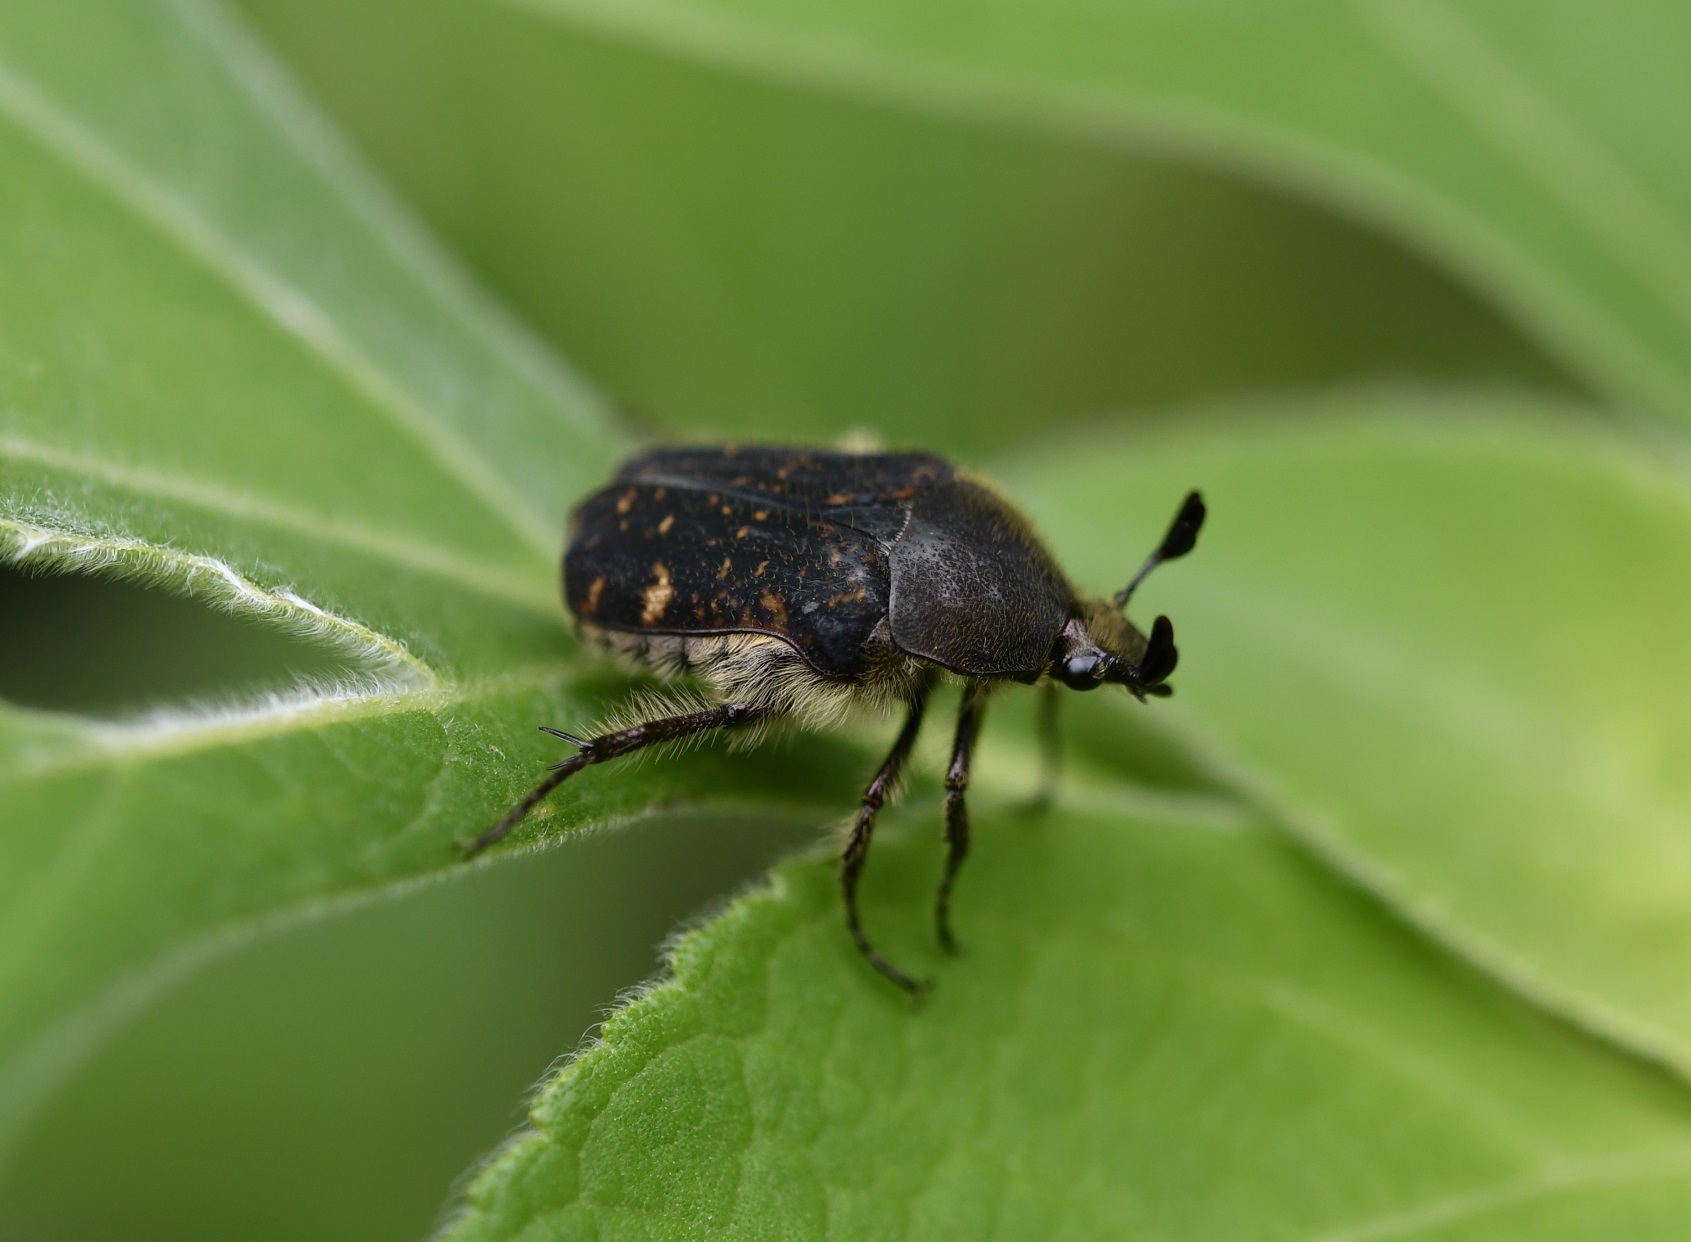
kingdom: Animalia
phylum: Arthropoda
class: Insecta
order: Coleoptera
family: Scarabaeidae
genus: Euphoria
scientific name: Euphoria lacandona
